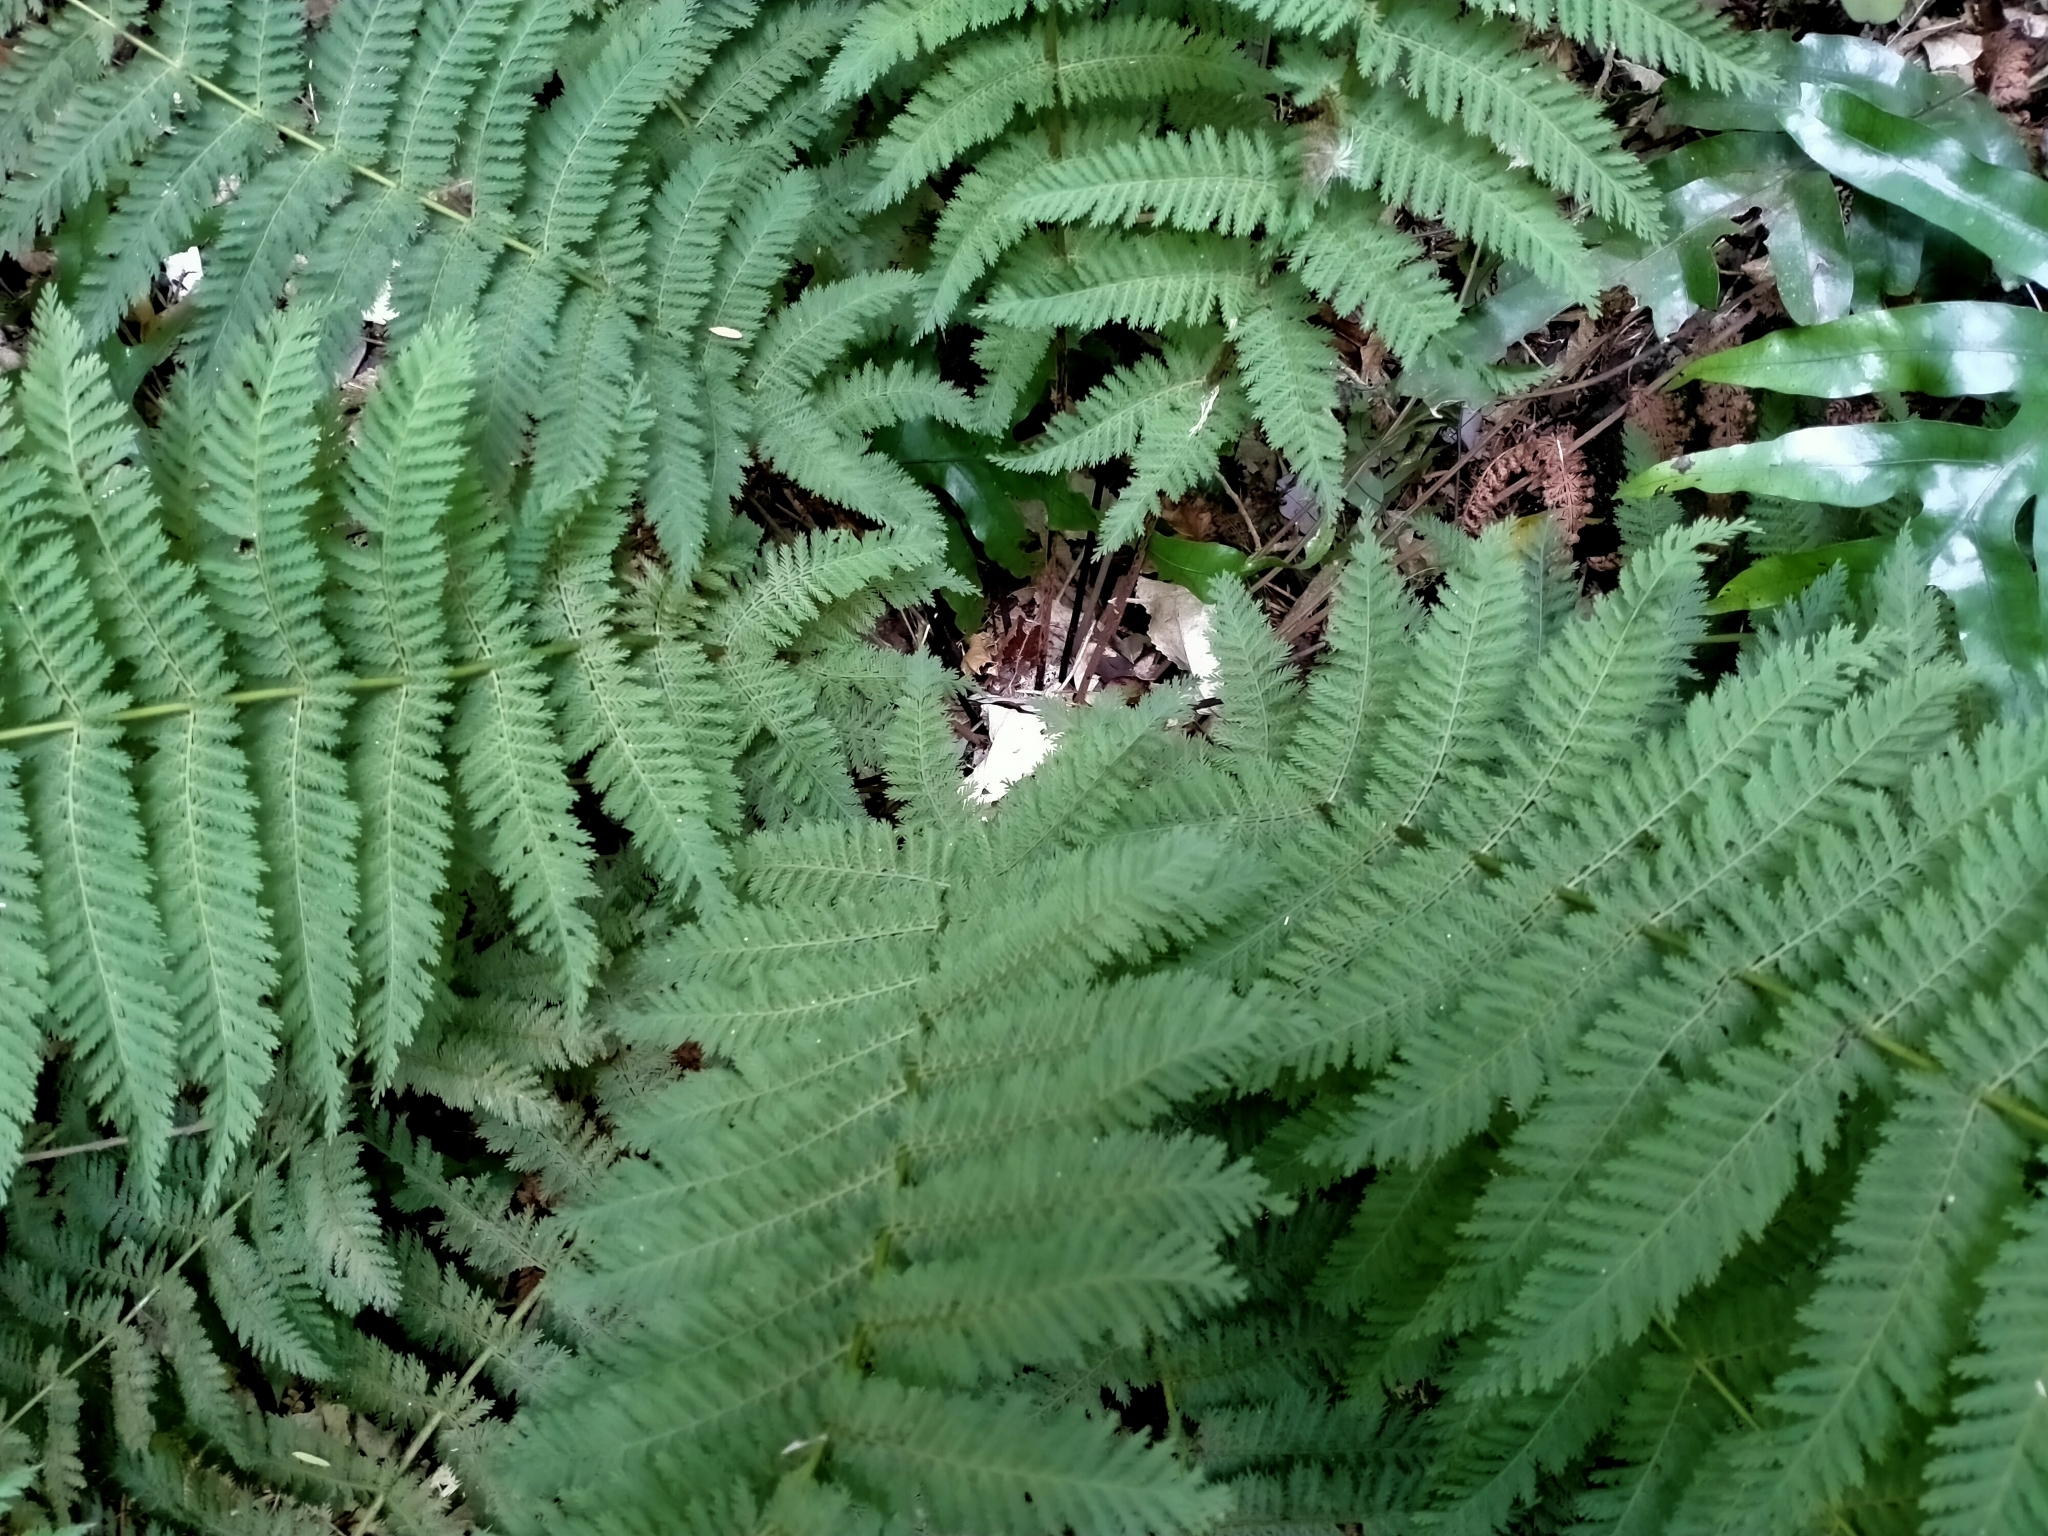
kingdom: Plantae
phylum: Tracheophyta
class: Polypodiopsida
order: Osmundales
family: Osmundaceae
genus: Leptopteris
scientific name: Leptopteris hymenophylloides
